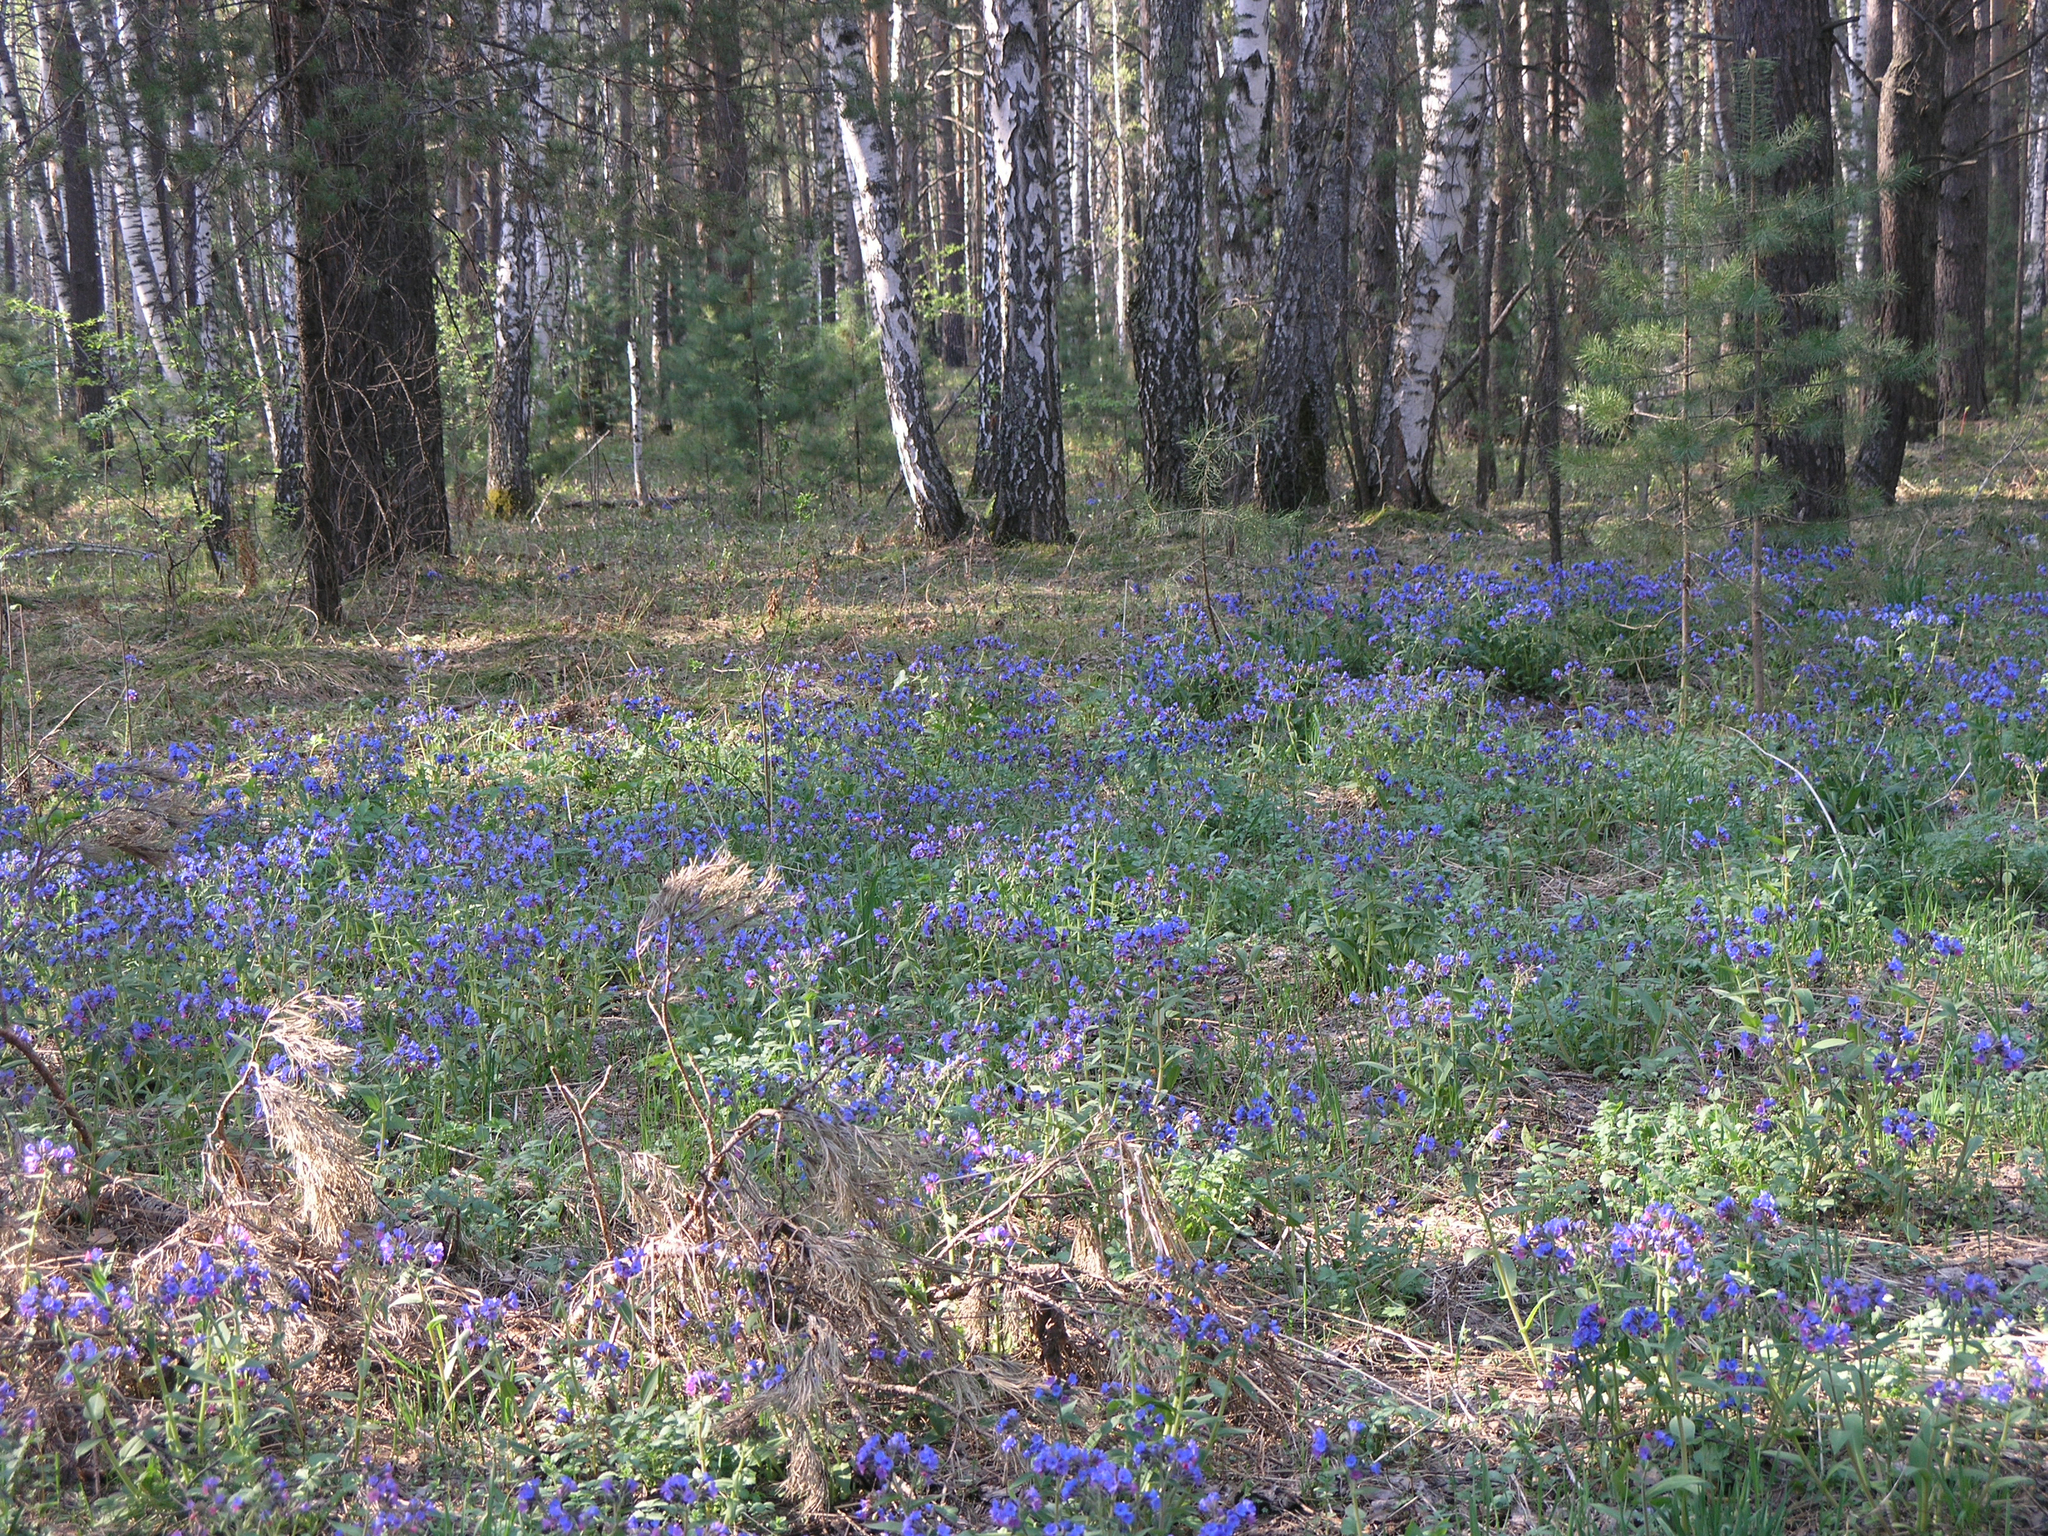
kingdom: Plantae
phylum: Tracheophyta
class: Magnoliopsida
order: Boraginales
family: Boraginaceae
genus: Pulmonaria
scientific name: Pulmonaria mollis
